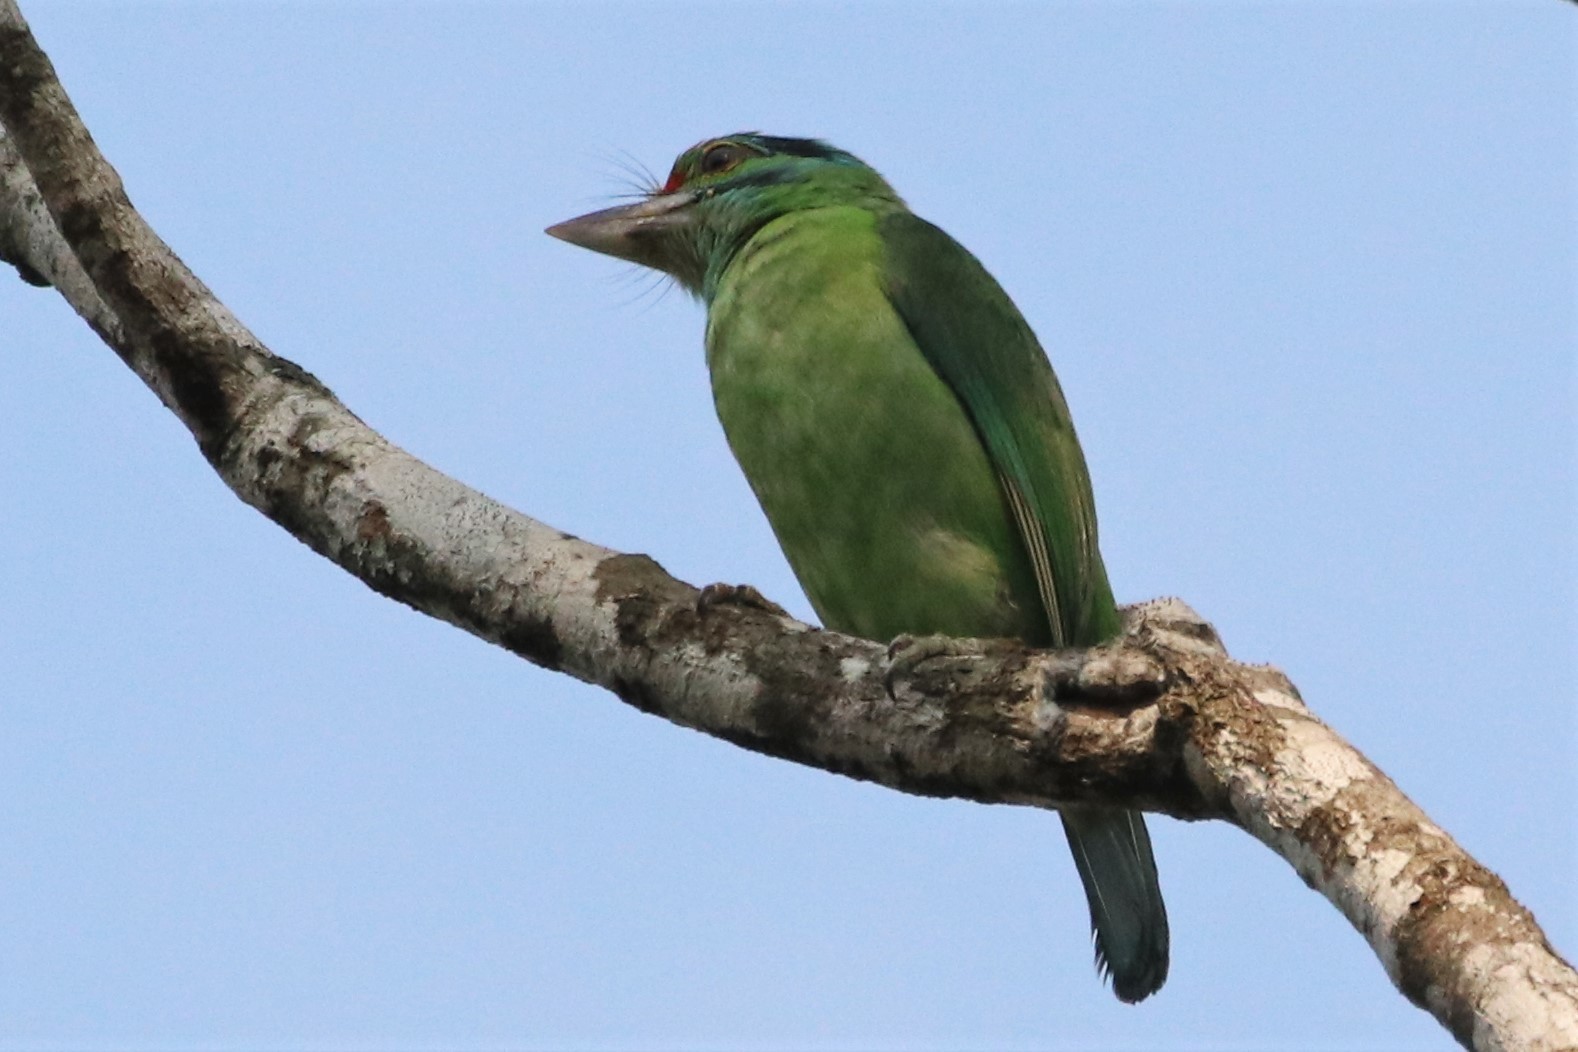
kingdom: Animalia
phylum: Chordata
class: Aves
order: Piciformes
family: Megalaimidae
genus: Psilopogon
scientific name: Psilopogon incognitus
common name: Moustached barbet
